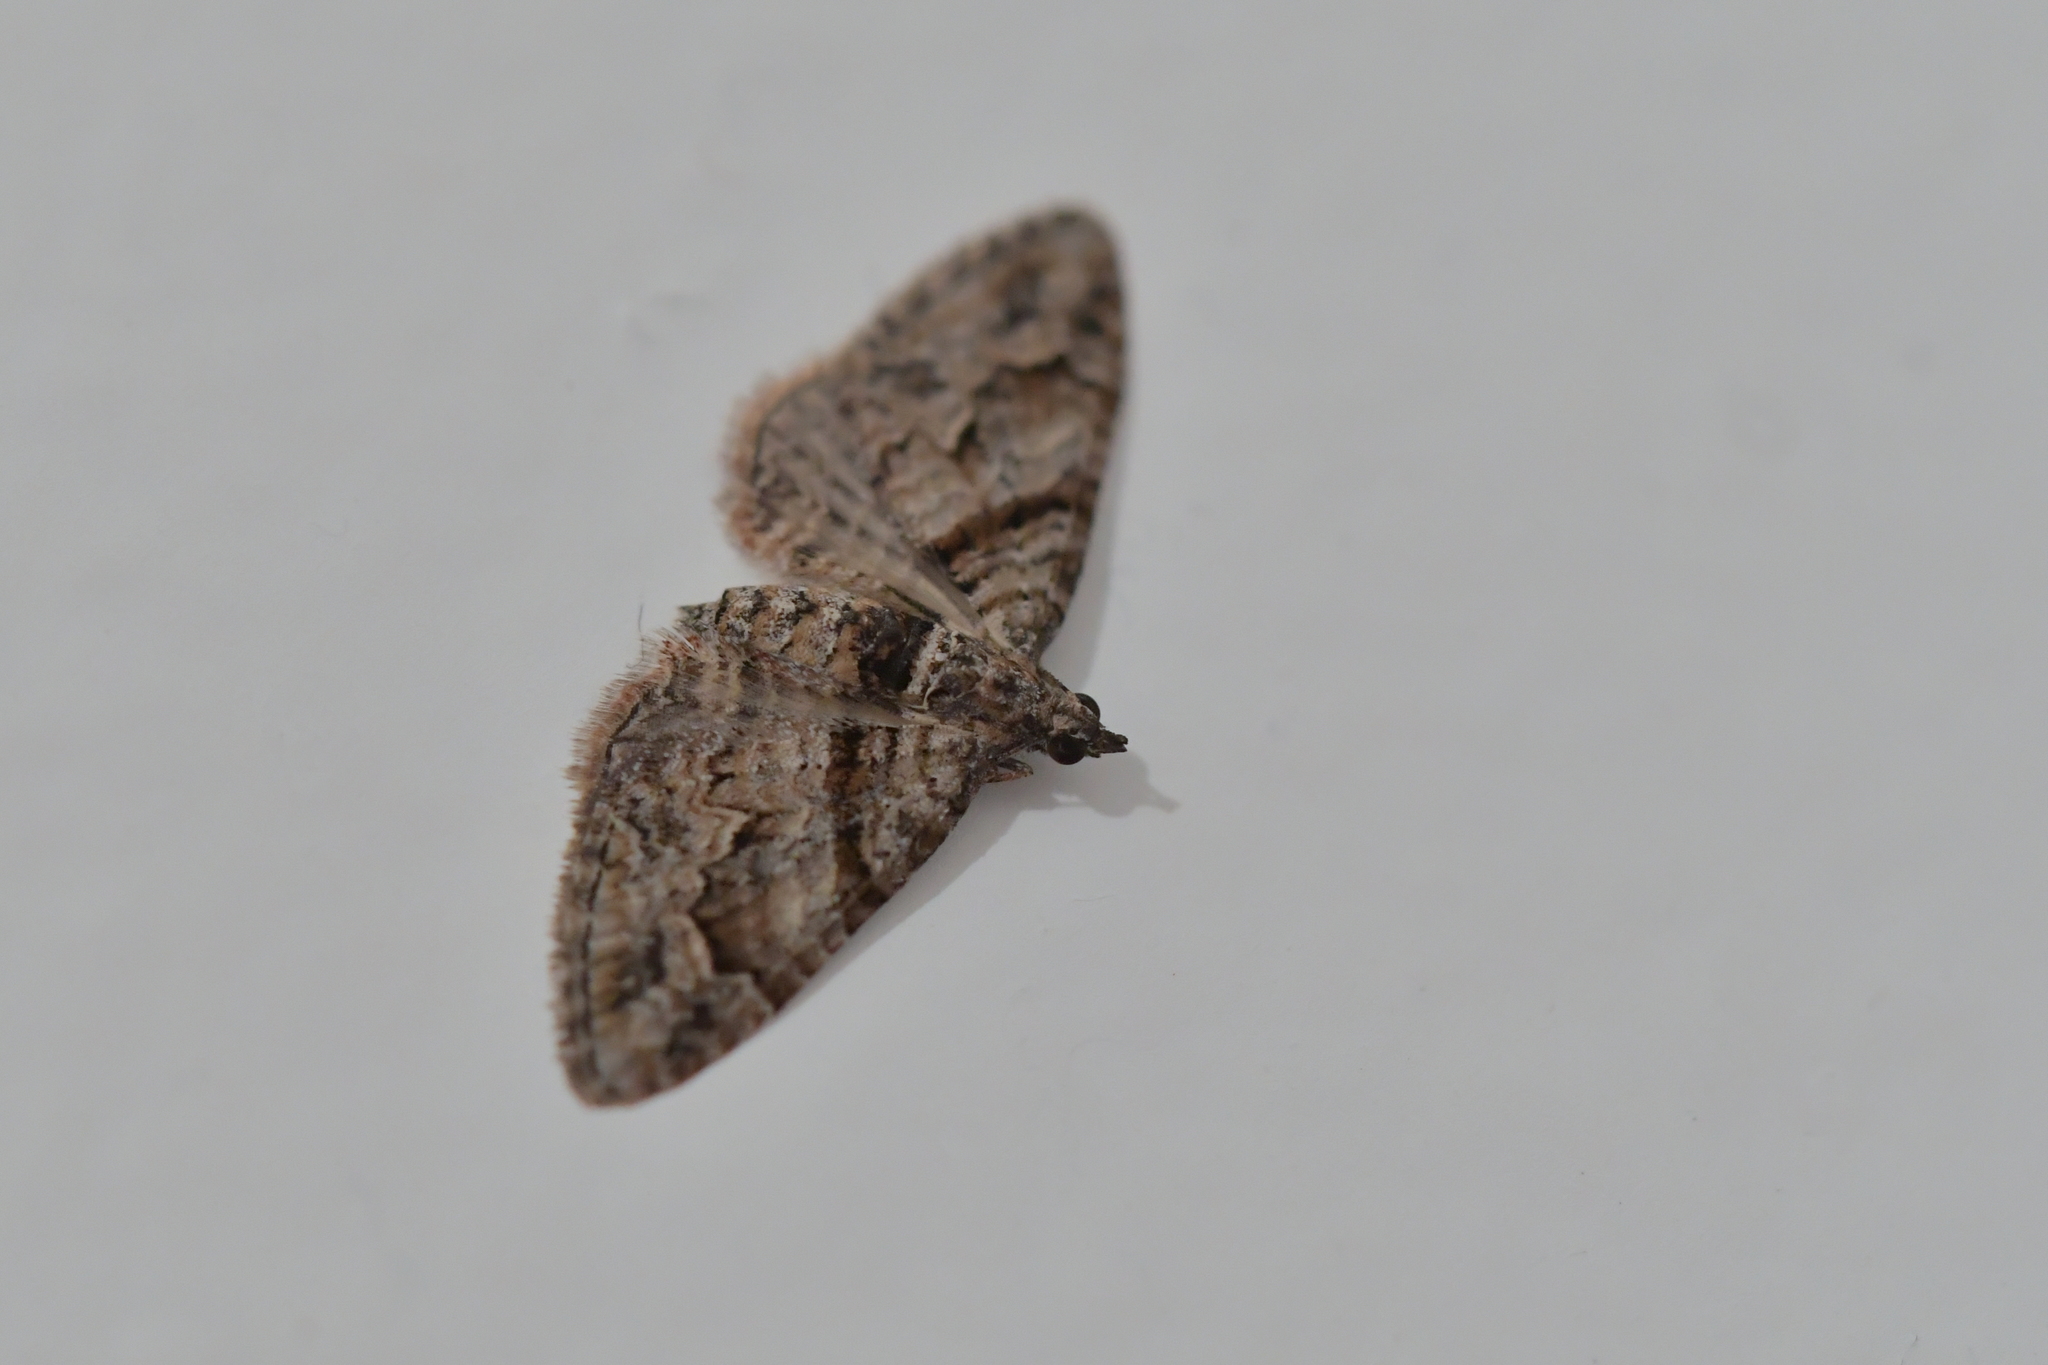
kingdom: Animalia
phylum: Arthropoda
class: Insecta
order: Lepidoptera
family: Geometridae
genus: Phrissogonus
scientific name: Phrissogonus laticostata
